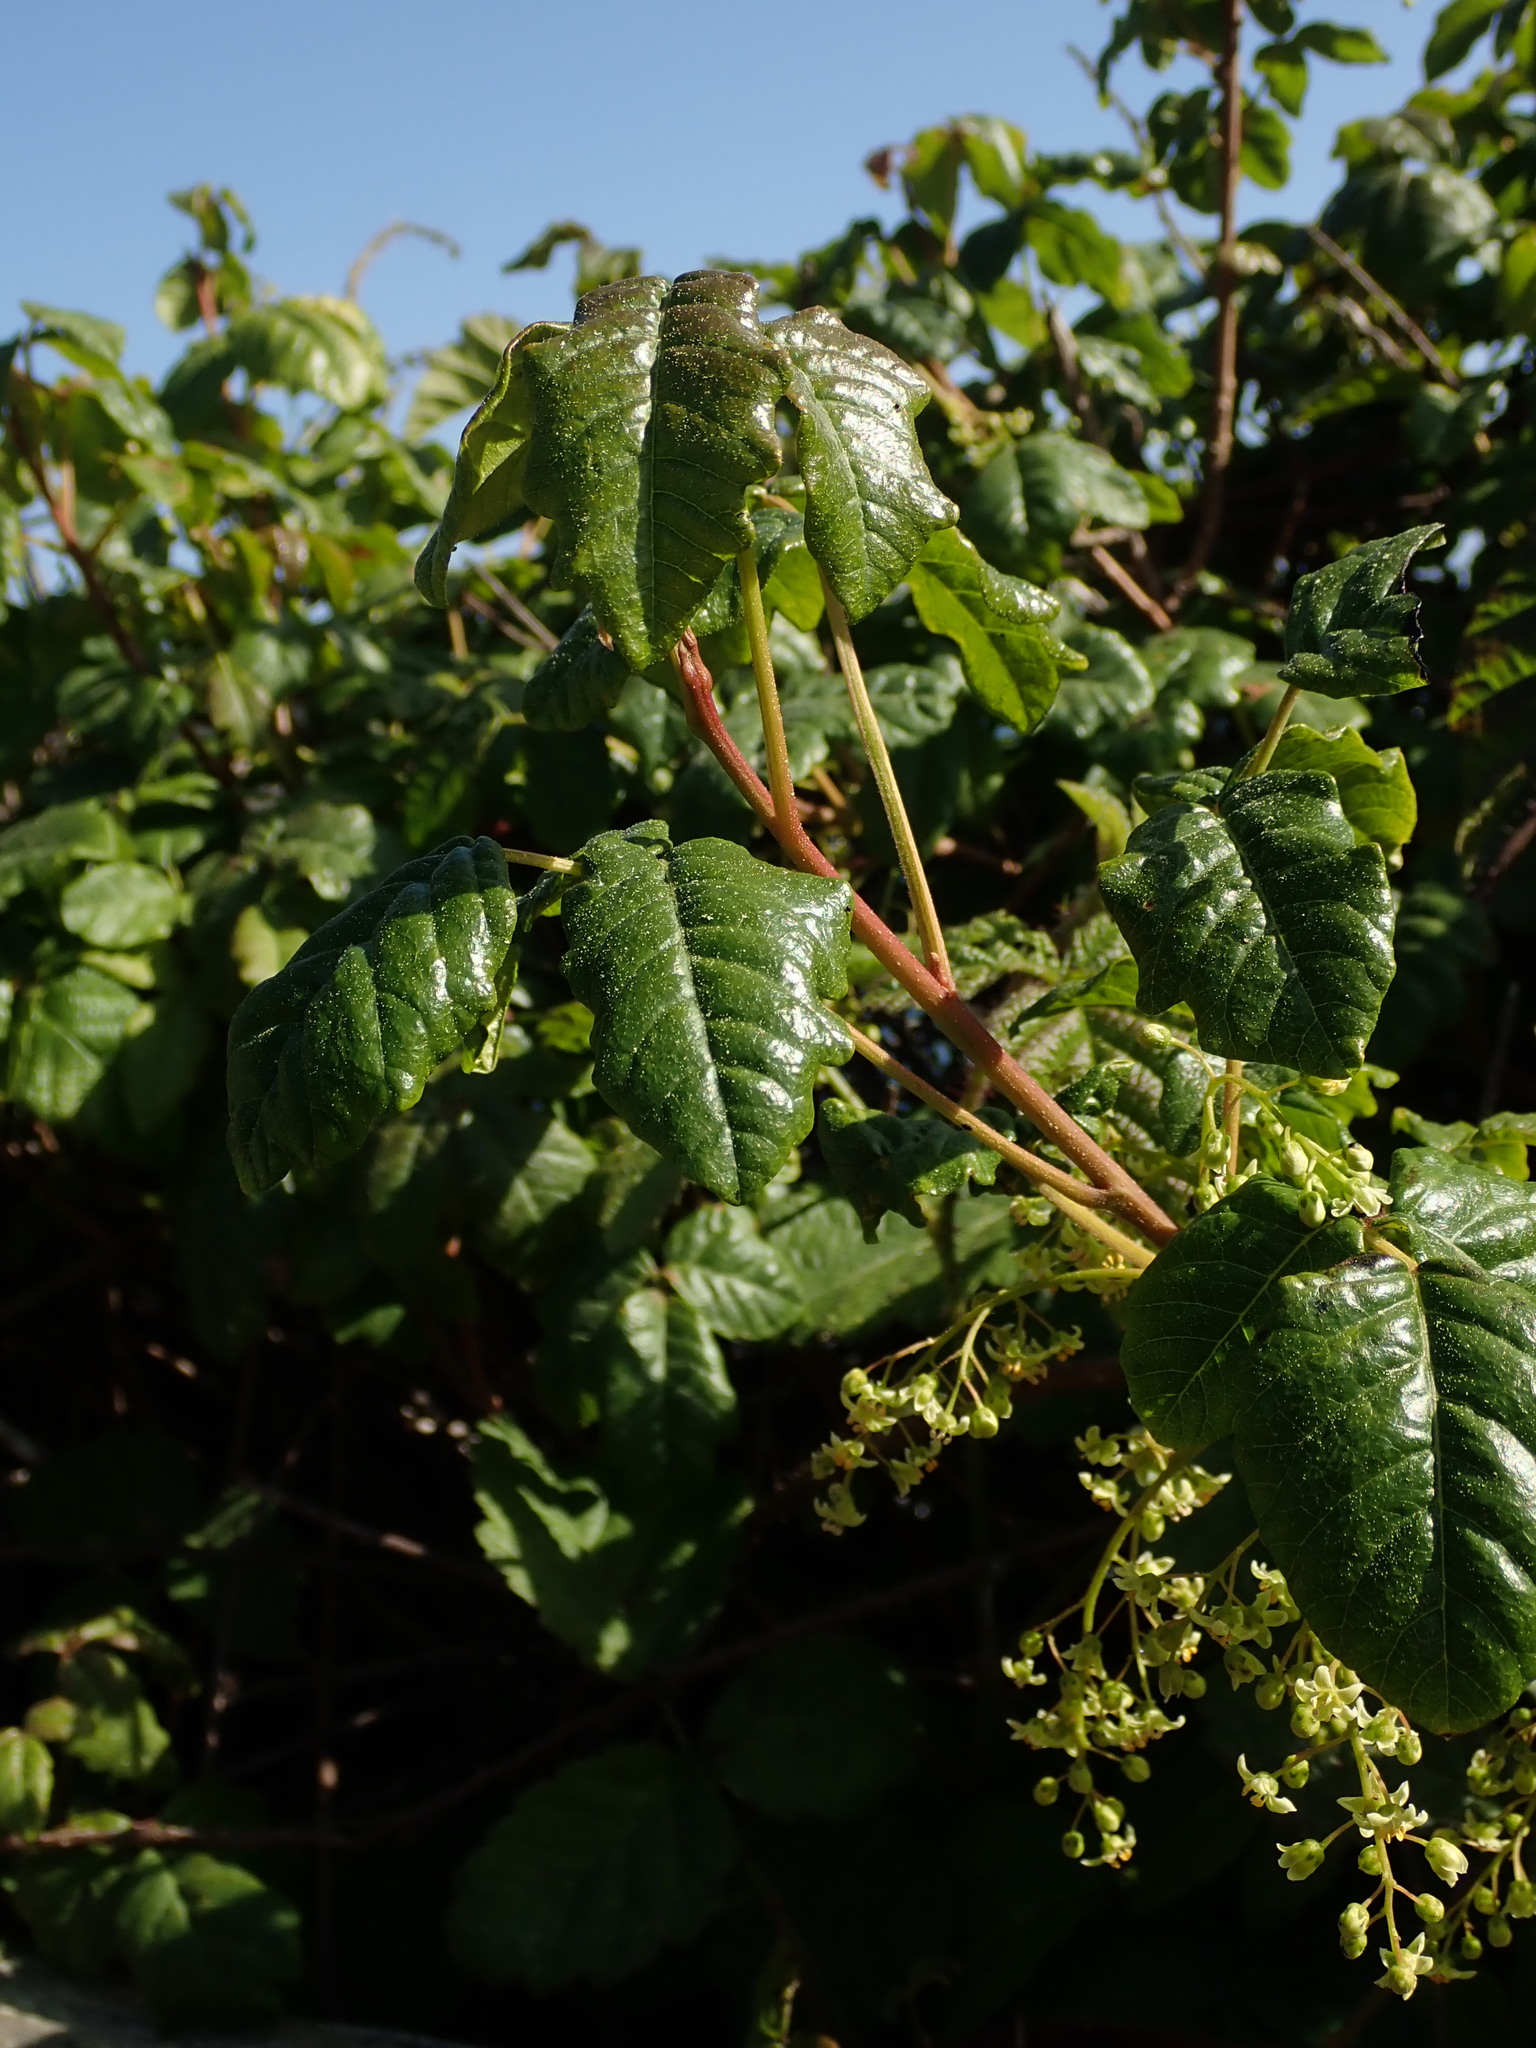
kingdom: Plantae
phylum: Tracheophyta
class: Magnoliopsida
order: Sapindales
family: Anacardiaceae
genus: Toxicodendron
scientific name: Toxicodendron diversilobum
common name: Pacific poison-oak
